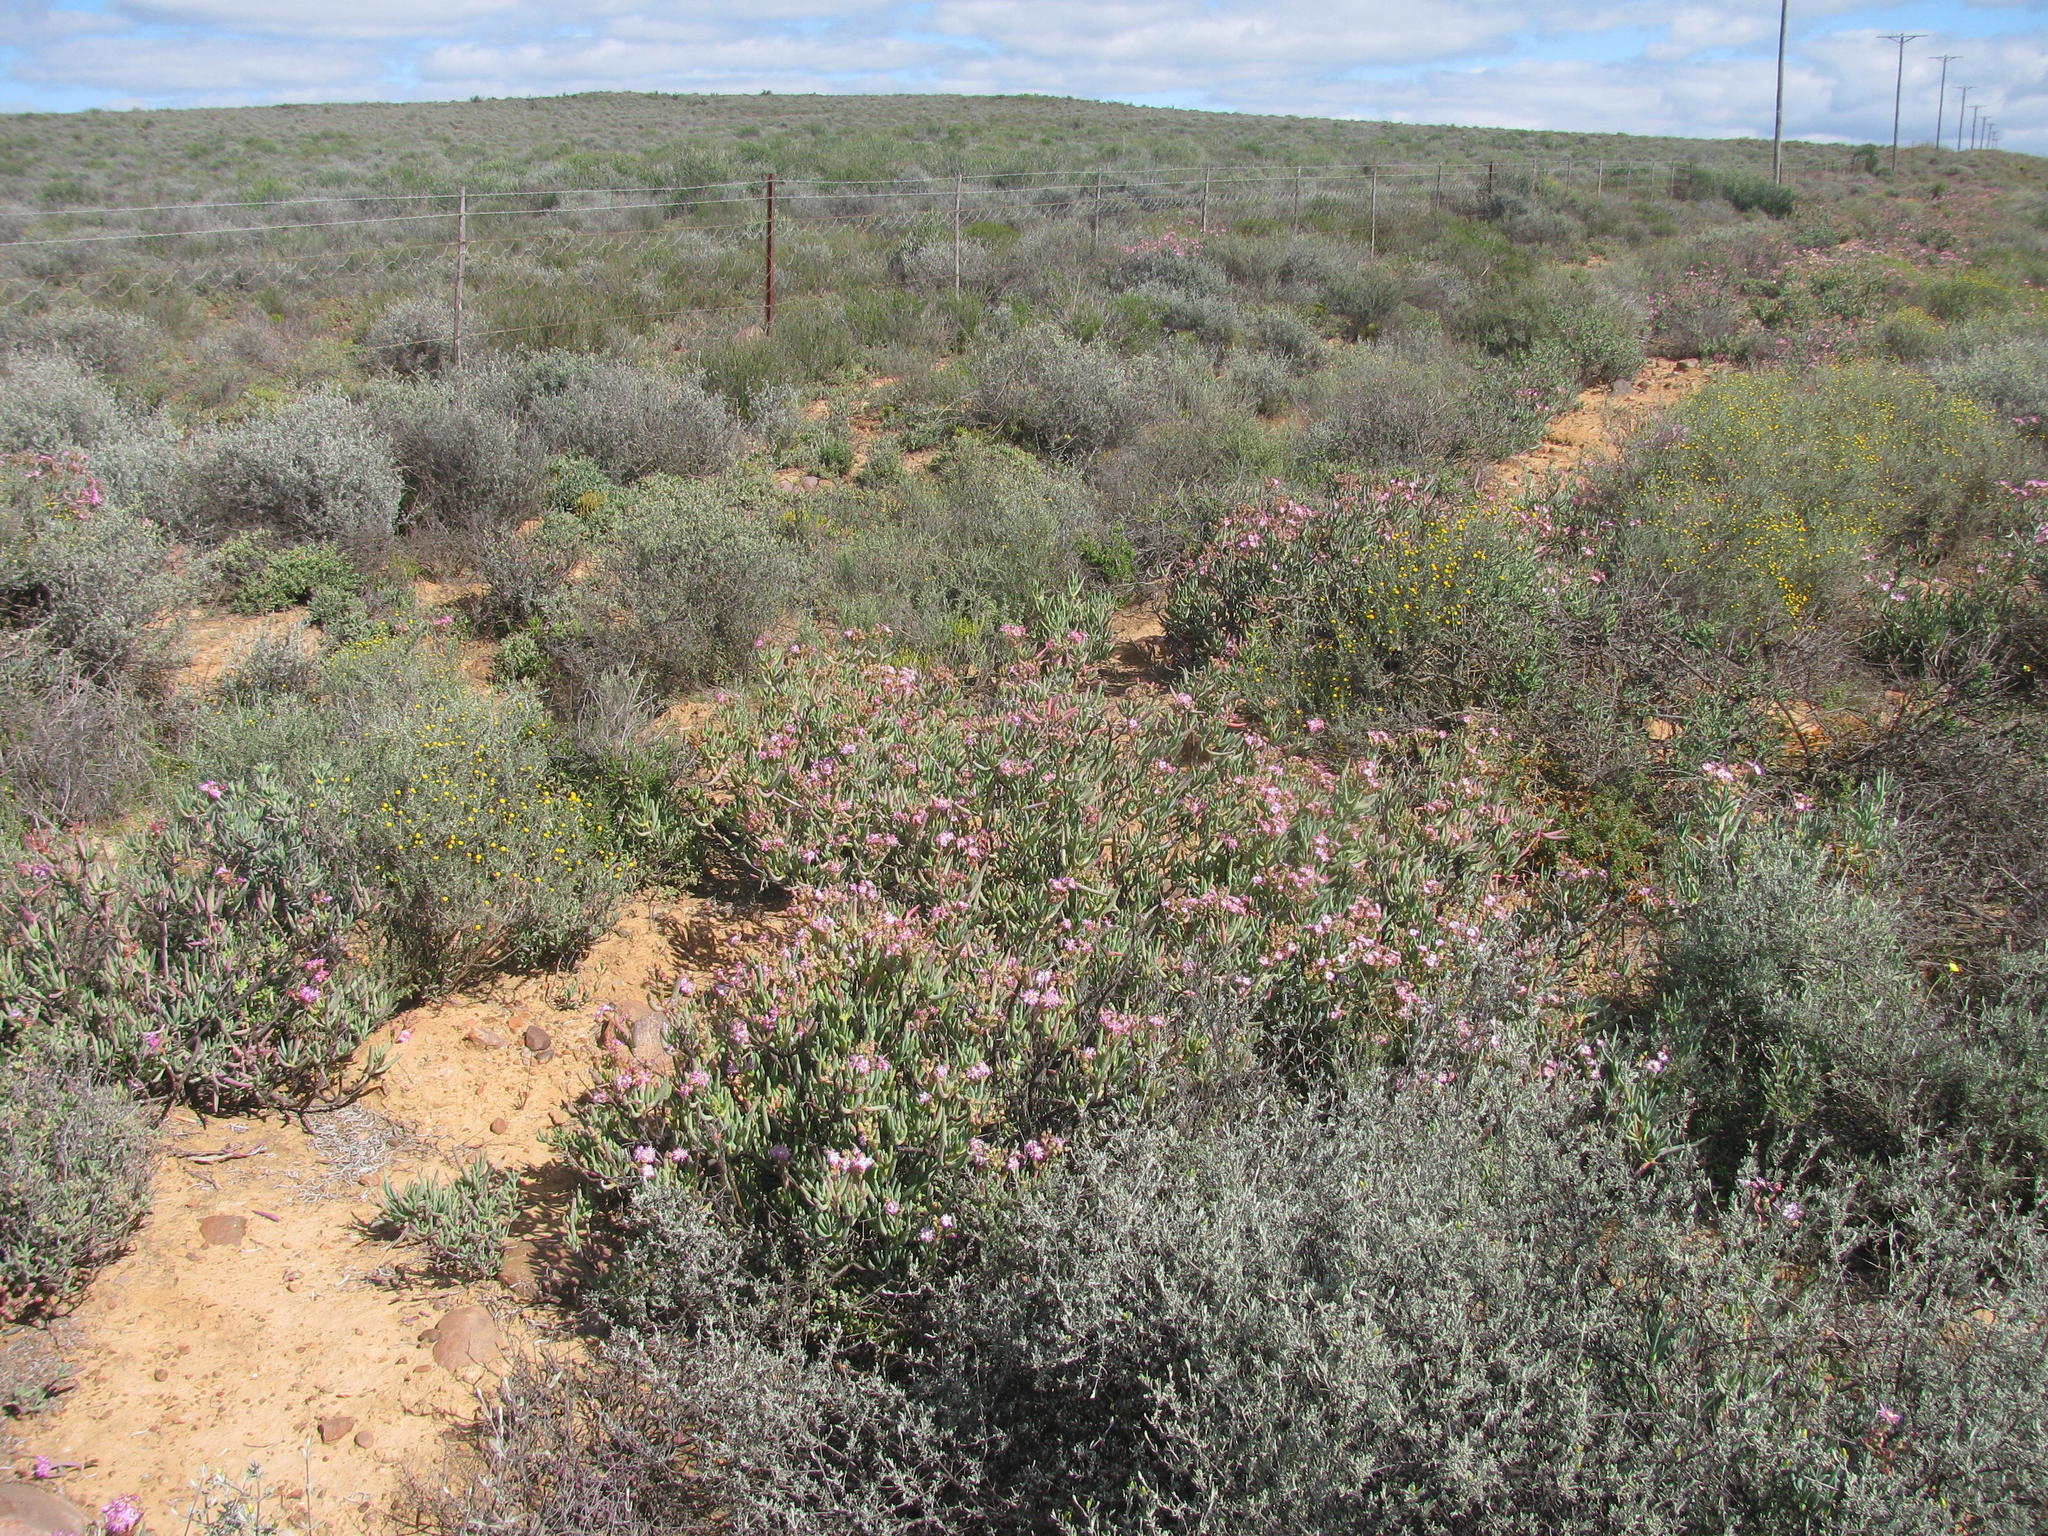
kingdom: Plantae
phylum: Tracheophyta
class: Magnoliopsida
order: Caryophyllales
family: Aizoaceae
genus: Ruschia
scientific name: Ruschia muelleri
